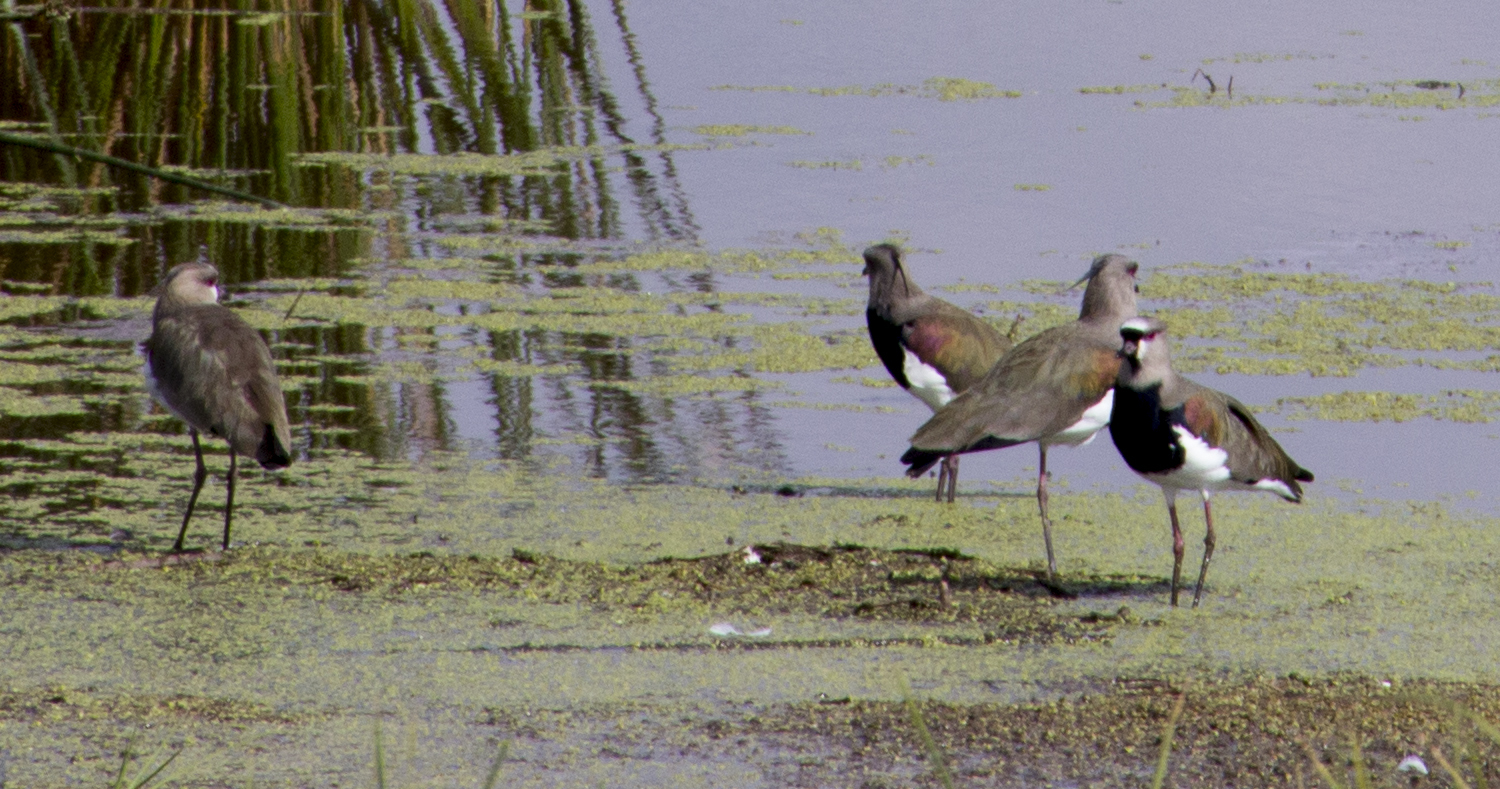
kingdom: Animalia
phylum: Chordata
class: Aves
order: Charadriiformes
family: Charadriidae
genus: Vanellus
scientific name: Vanellus chilensis
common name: Southern lapwing
